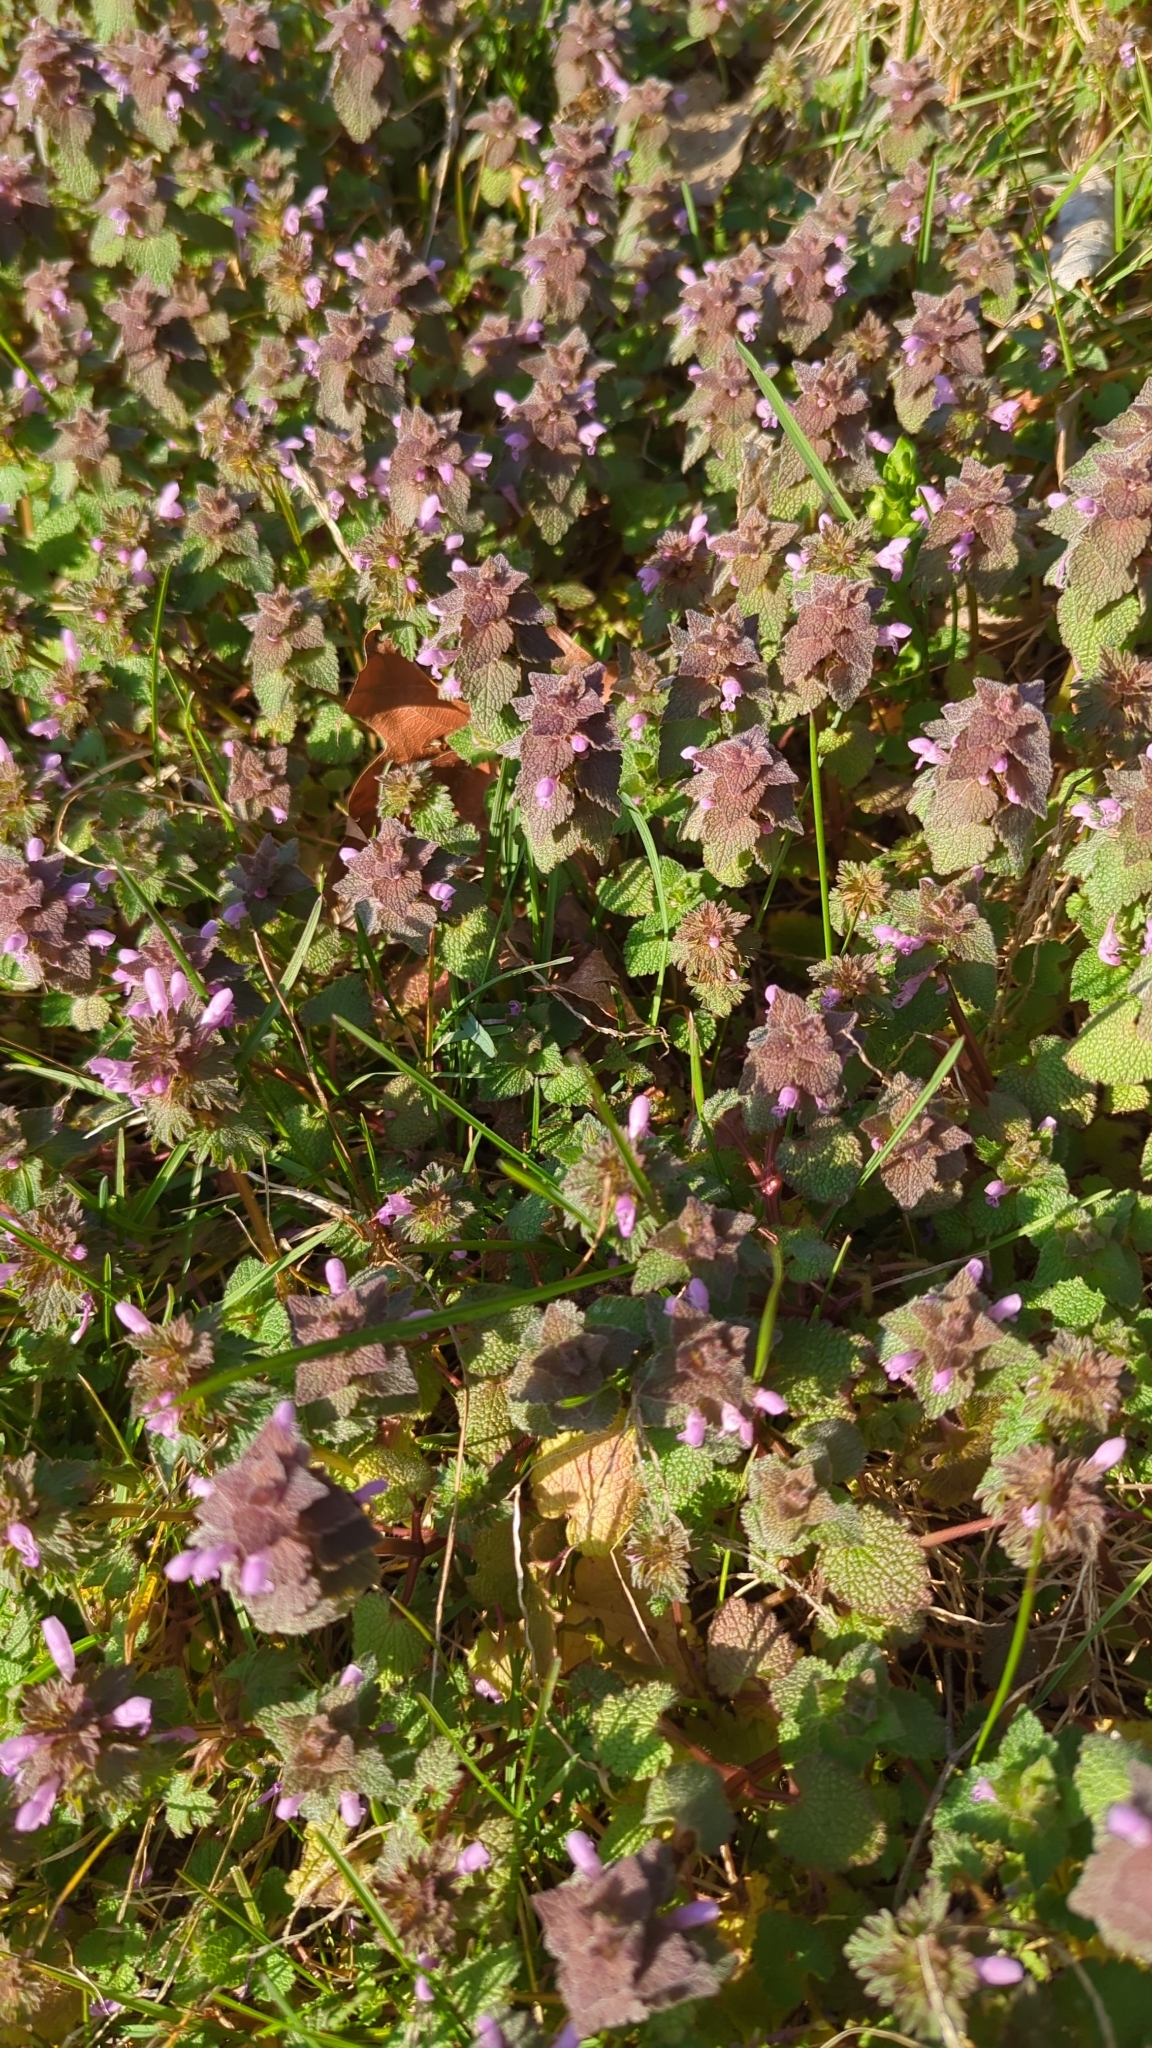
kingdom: Plantae
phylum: Tracheophyta
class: Magnoliopsida
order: Lamiales
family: Lamiaceae
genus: Lamium
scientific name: Lamium purpureum
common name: Red dead-nettle
